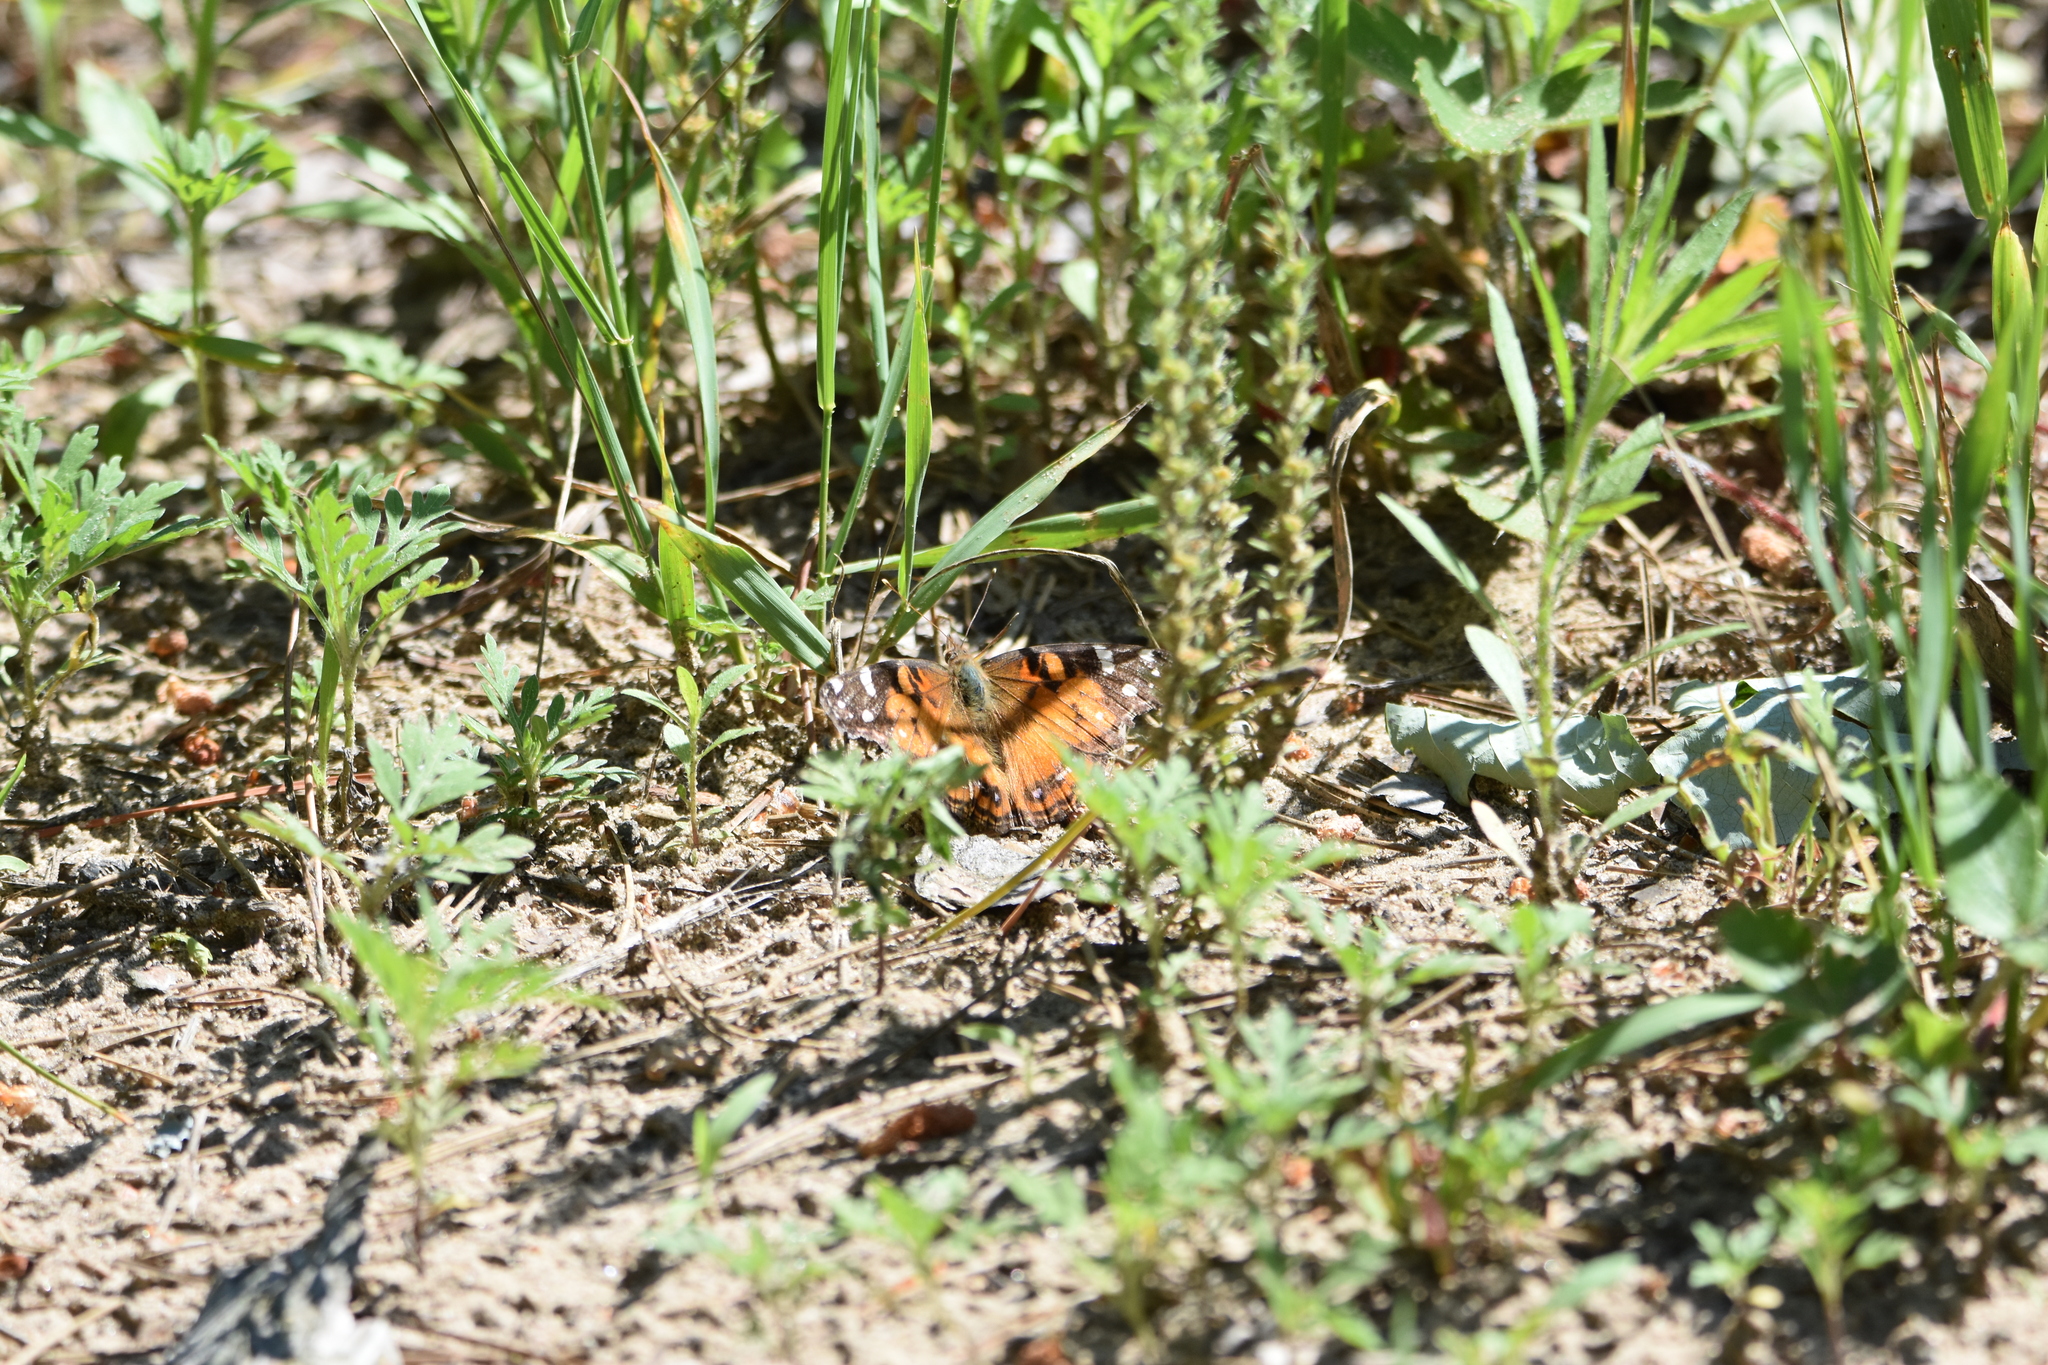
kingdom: Animalia
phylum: Arthropoda
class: Insecta
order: Lepidoptera
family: Nymphalidae
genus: Vanessa
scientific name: Vanessa virginiensis
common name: American lady
